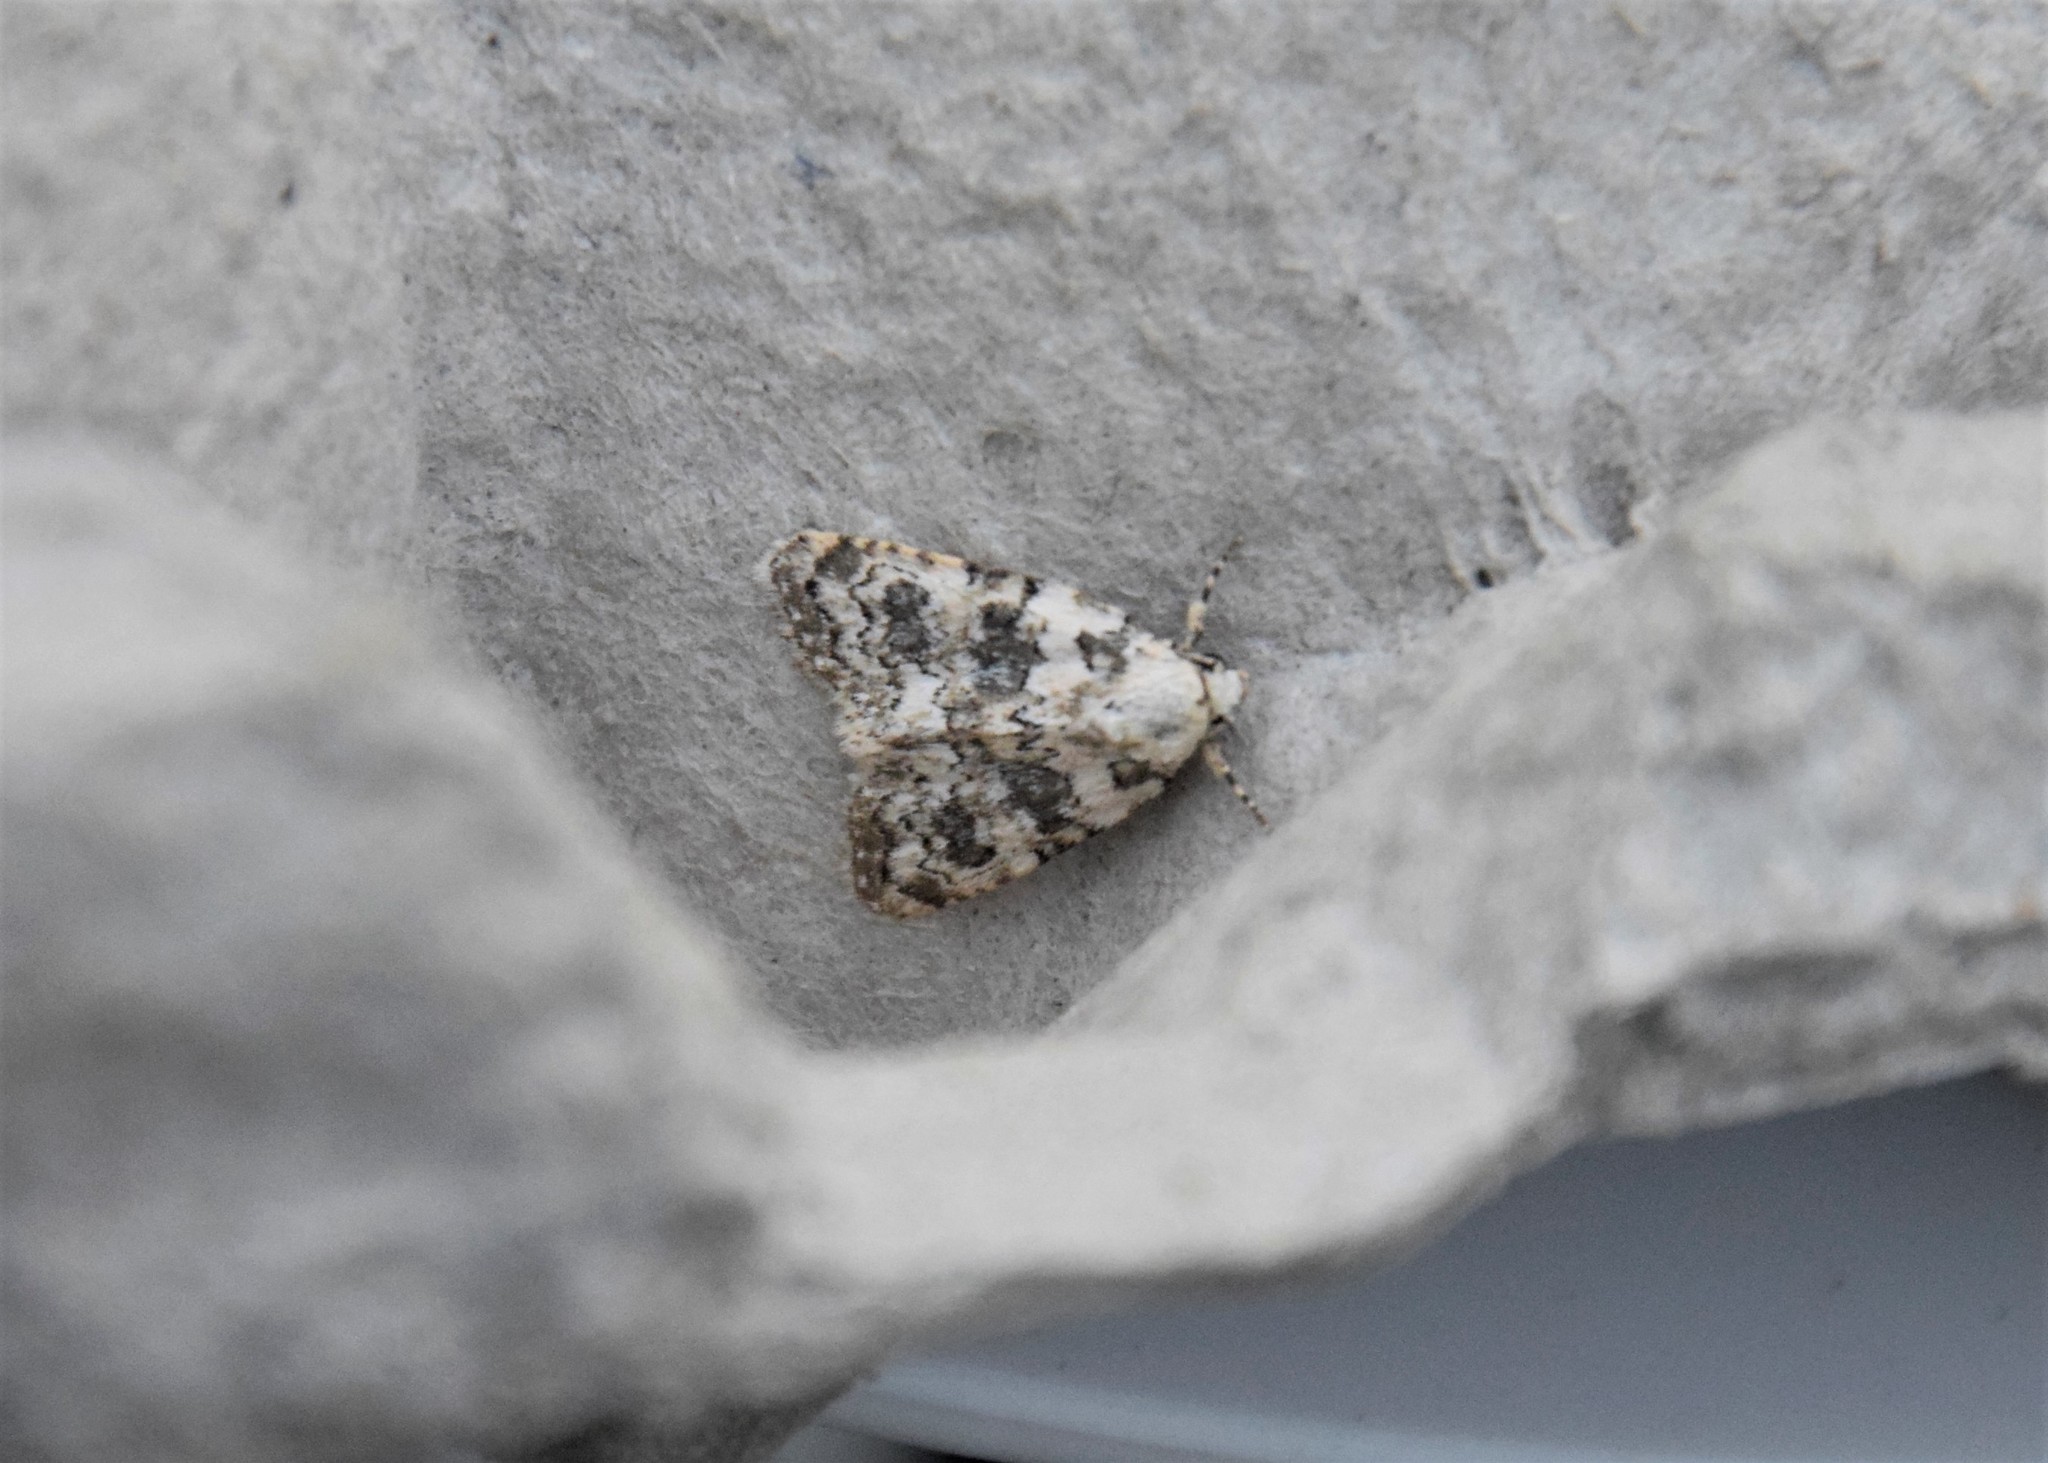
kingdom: Animalia
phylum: Arthropoda
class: Insecta
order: Lepidoptera
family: Noctuidae
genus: Bryophila
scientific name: Bryophila domestica
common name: Marbled beauty
